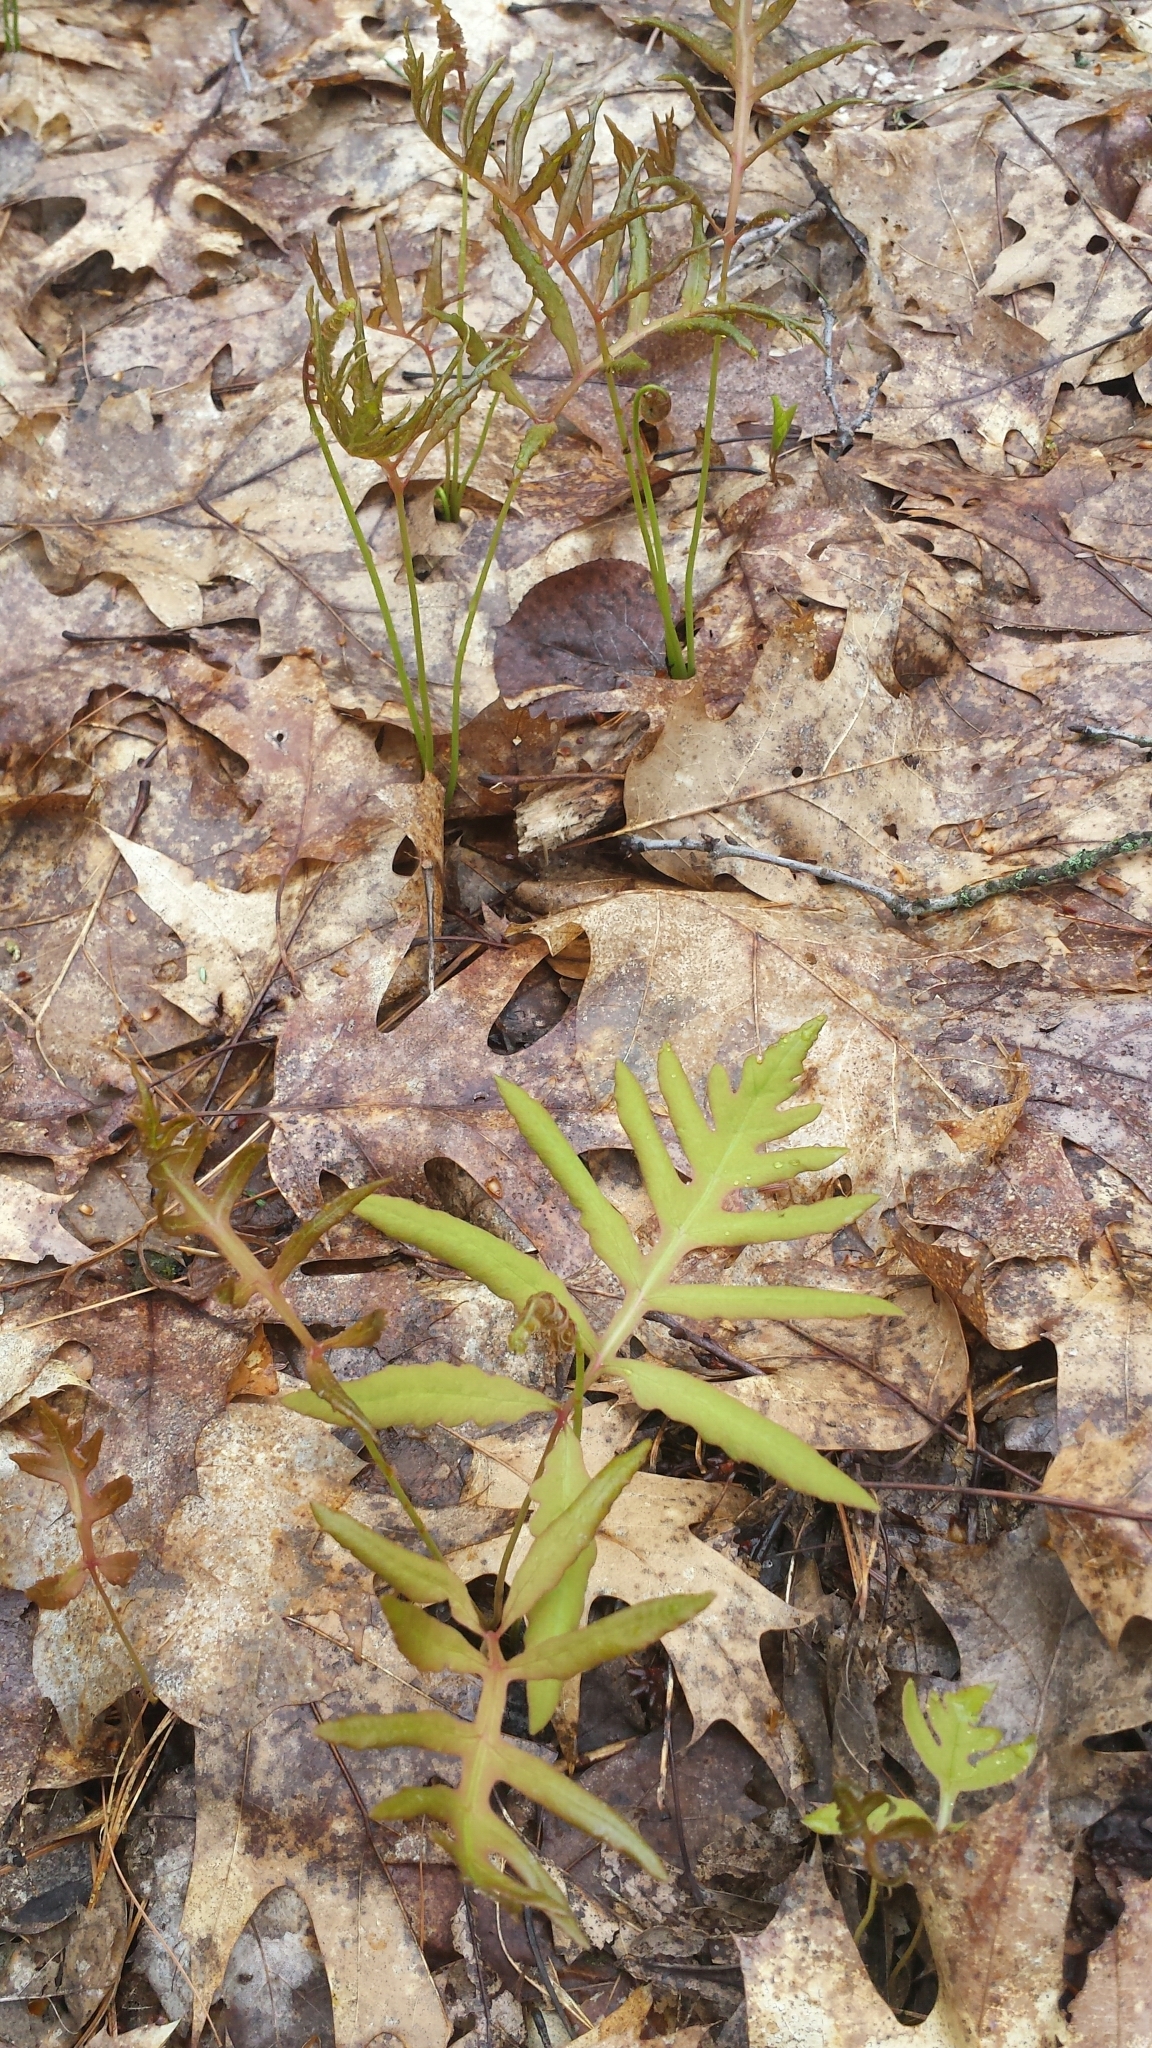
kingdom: Plantae
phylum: Tracheophyta
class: Polypodiopsida
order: Polypodiales
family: Onocleaceae
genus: Onoclea
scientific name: Onoclea sensibilis
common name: Sensitive fern
